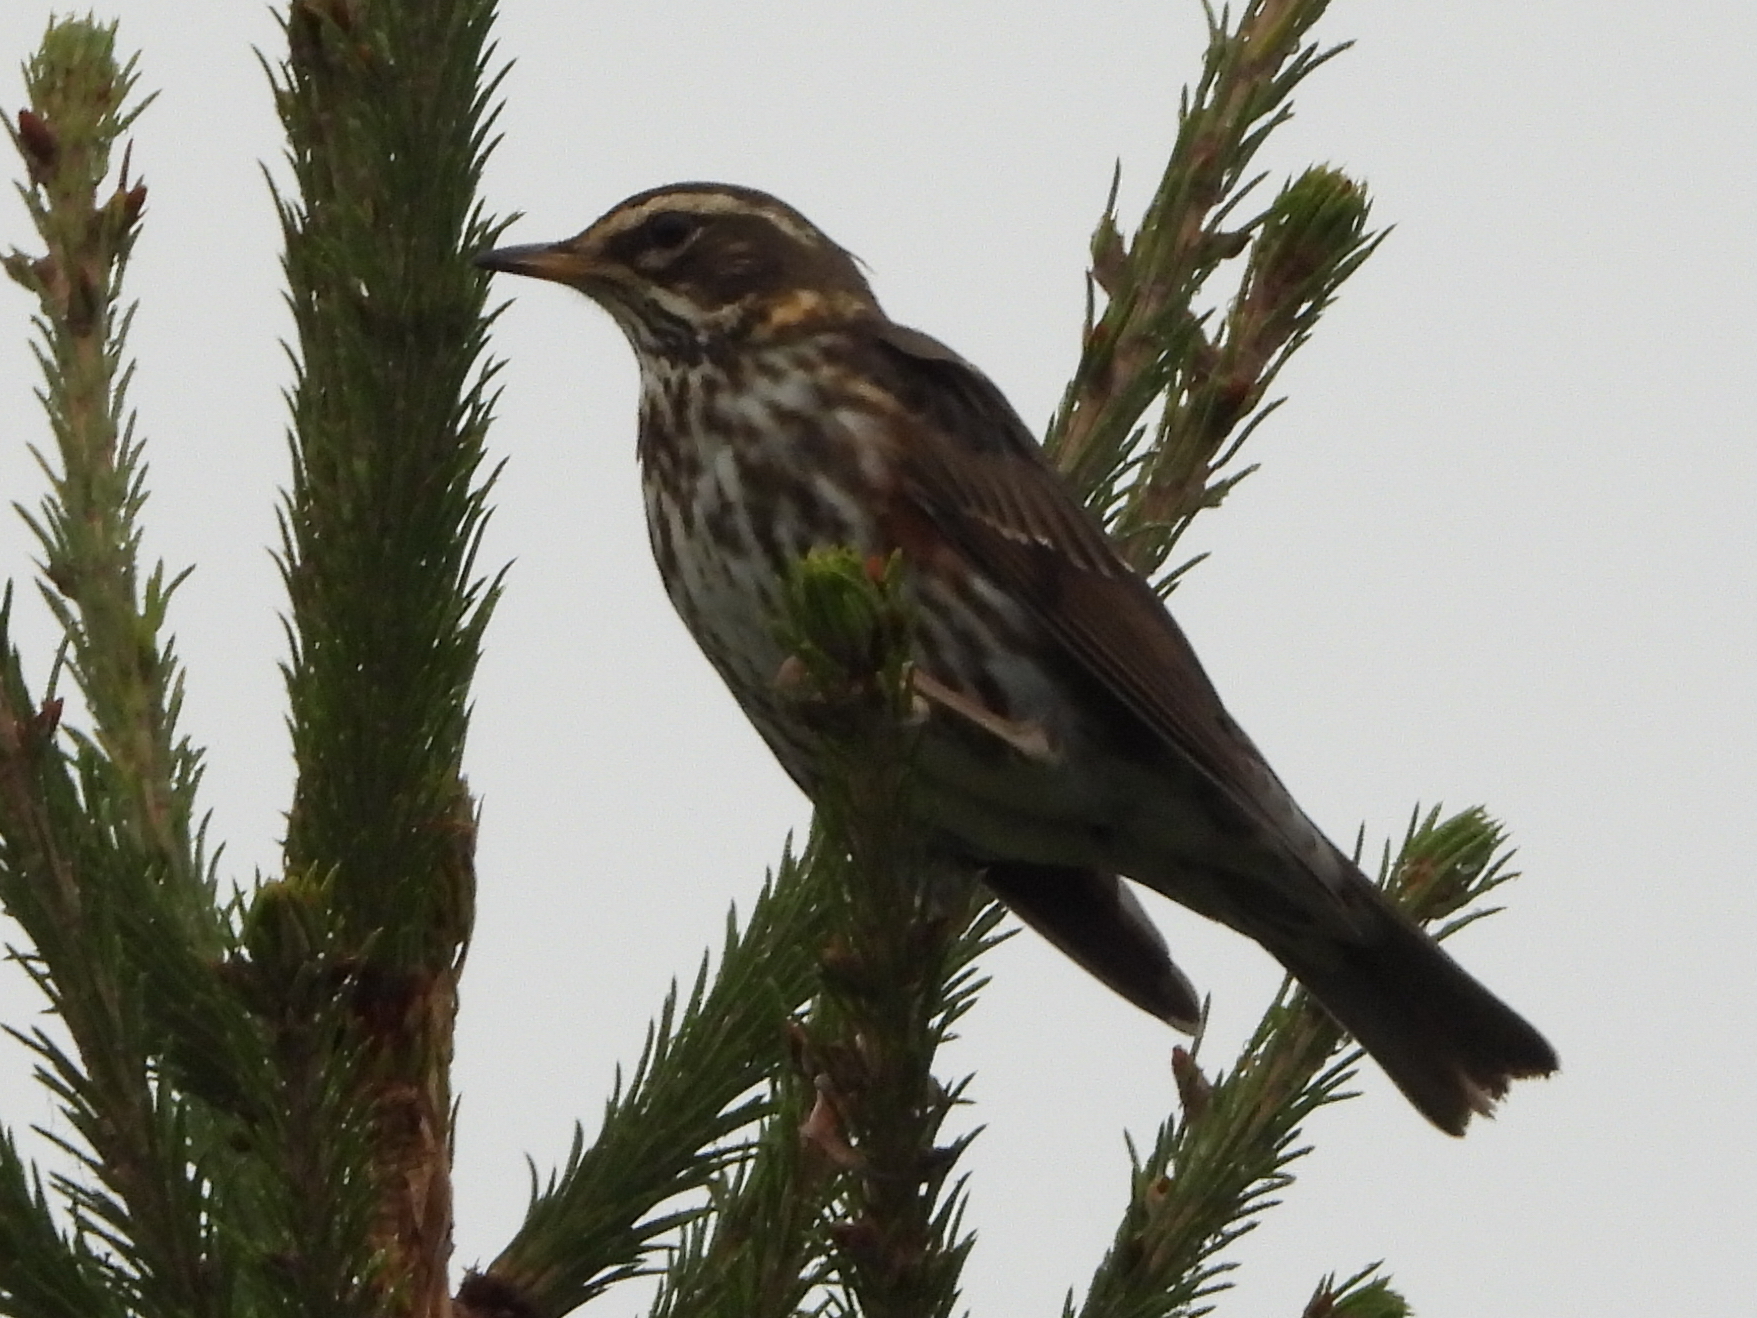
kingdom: Animalia
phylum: Chordata
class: Aves
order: Passeriformes
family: Turdidae
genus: Turdus
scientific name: Turdus iliacus
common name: Redwing
